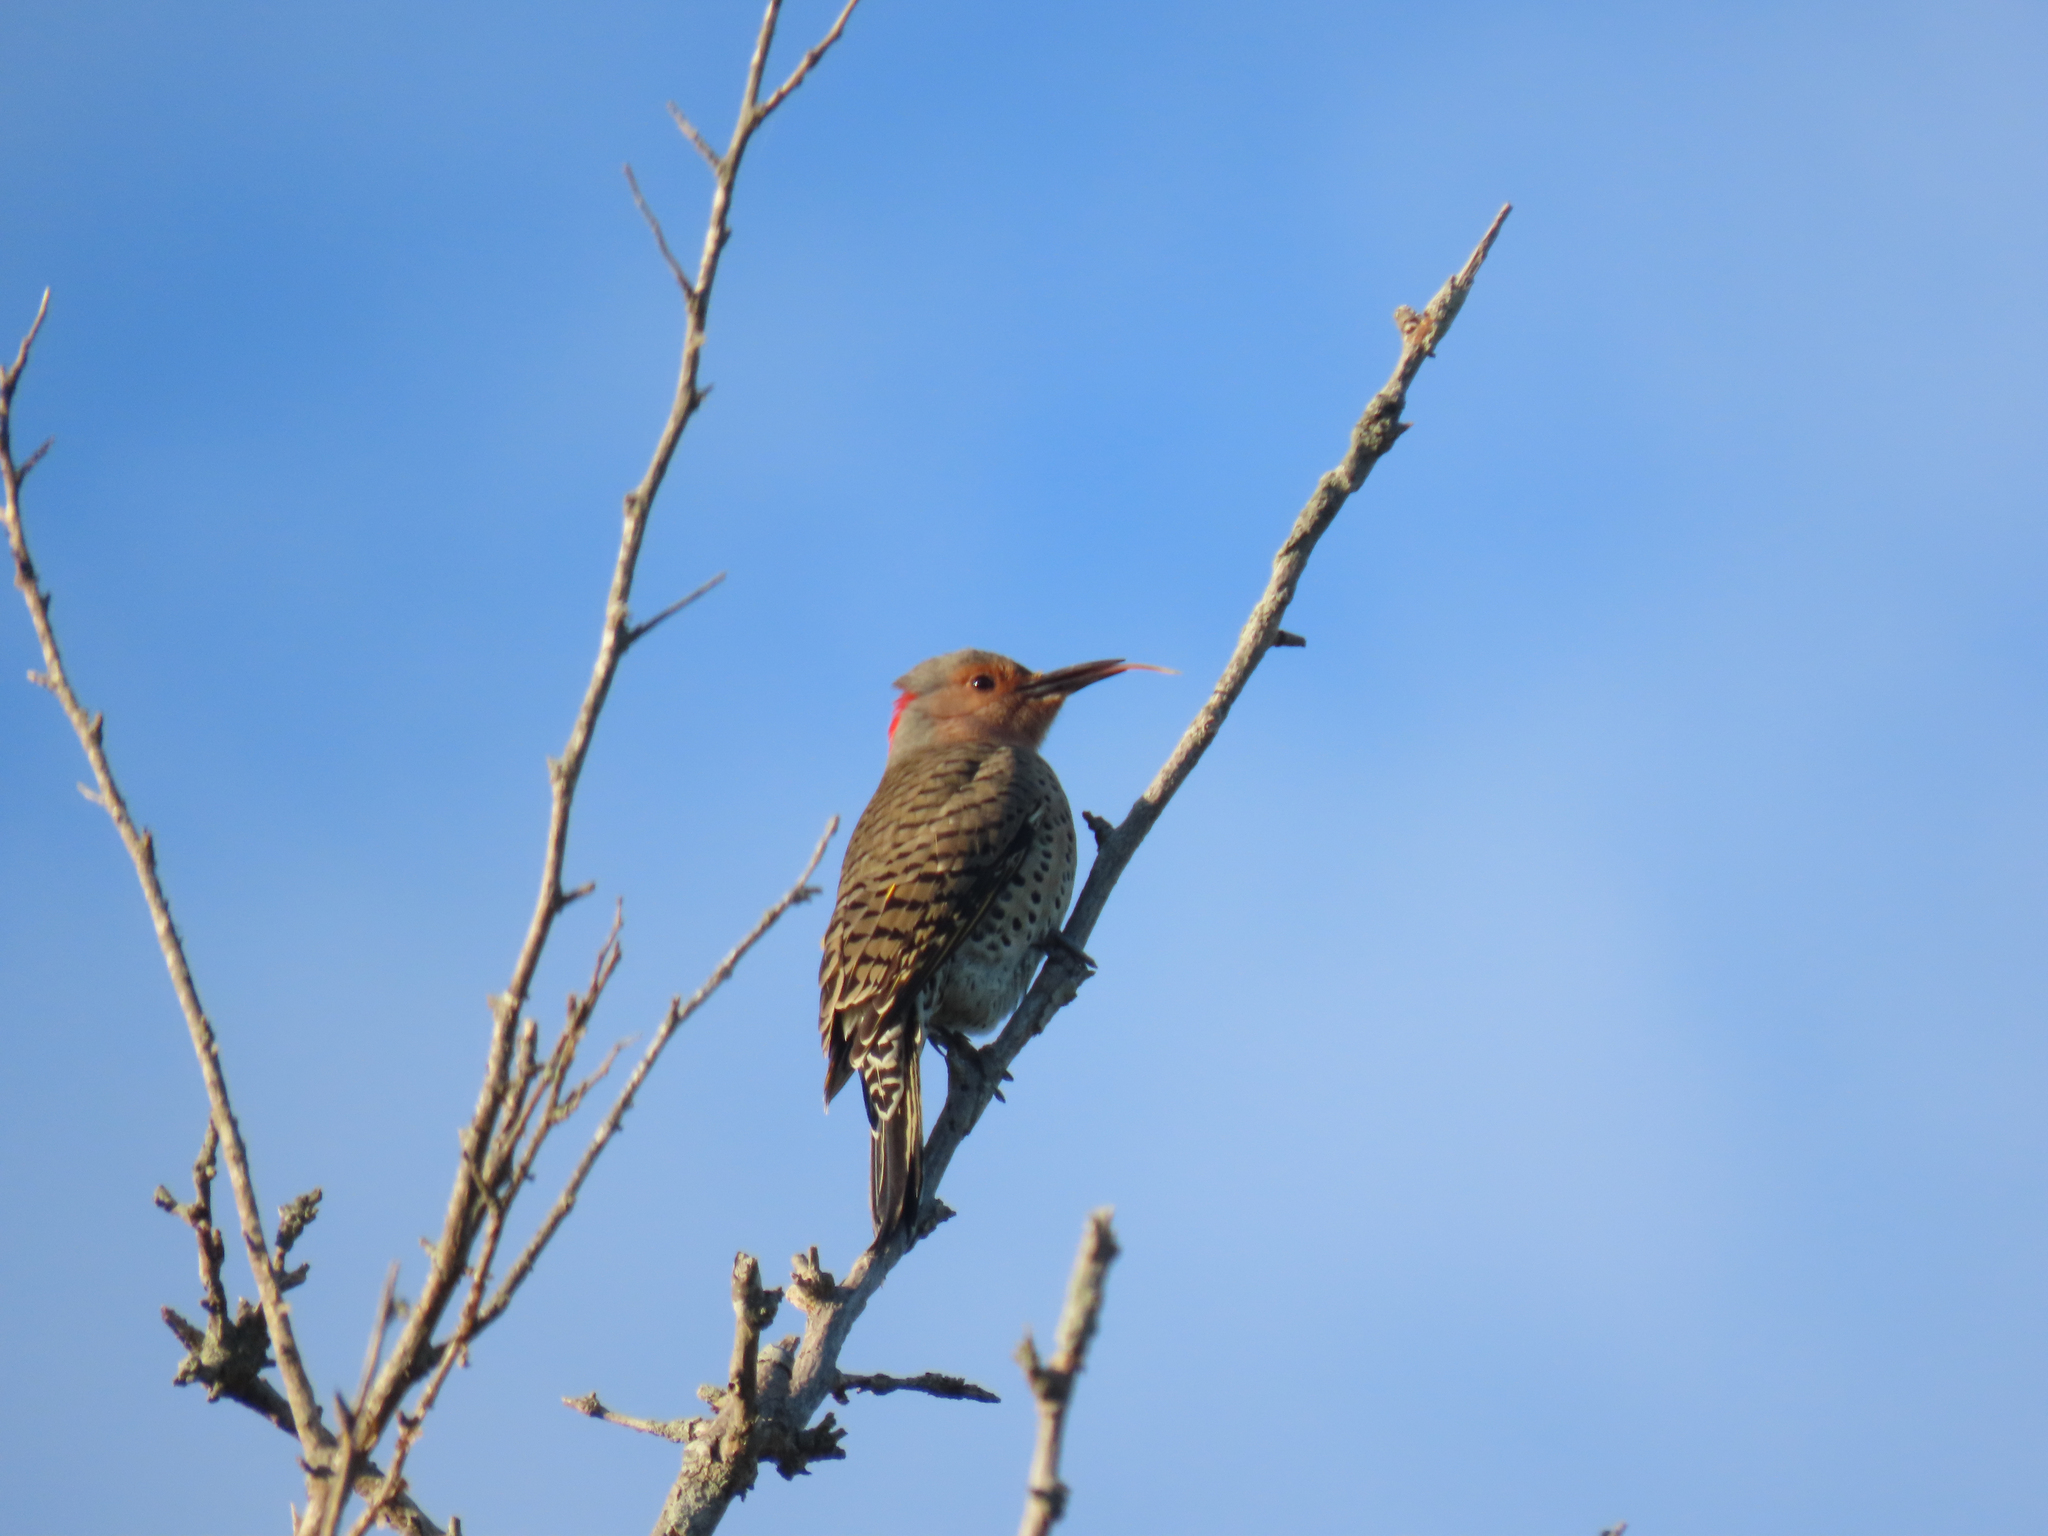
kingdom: Animalia
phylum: Chordata
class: Aves
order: Piciformes
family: Picidae
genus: Colaptes
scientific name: Colaptes auratus
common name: Northern flicker
